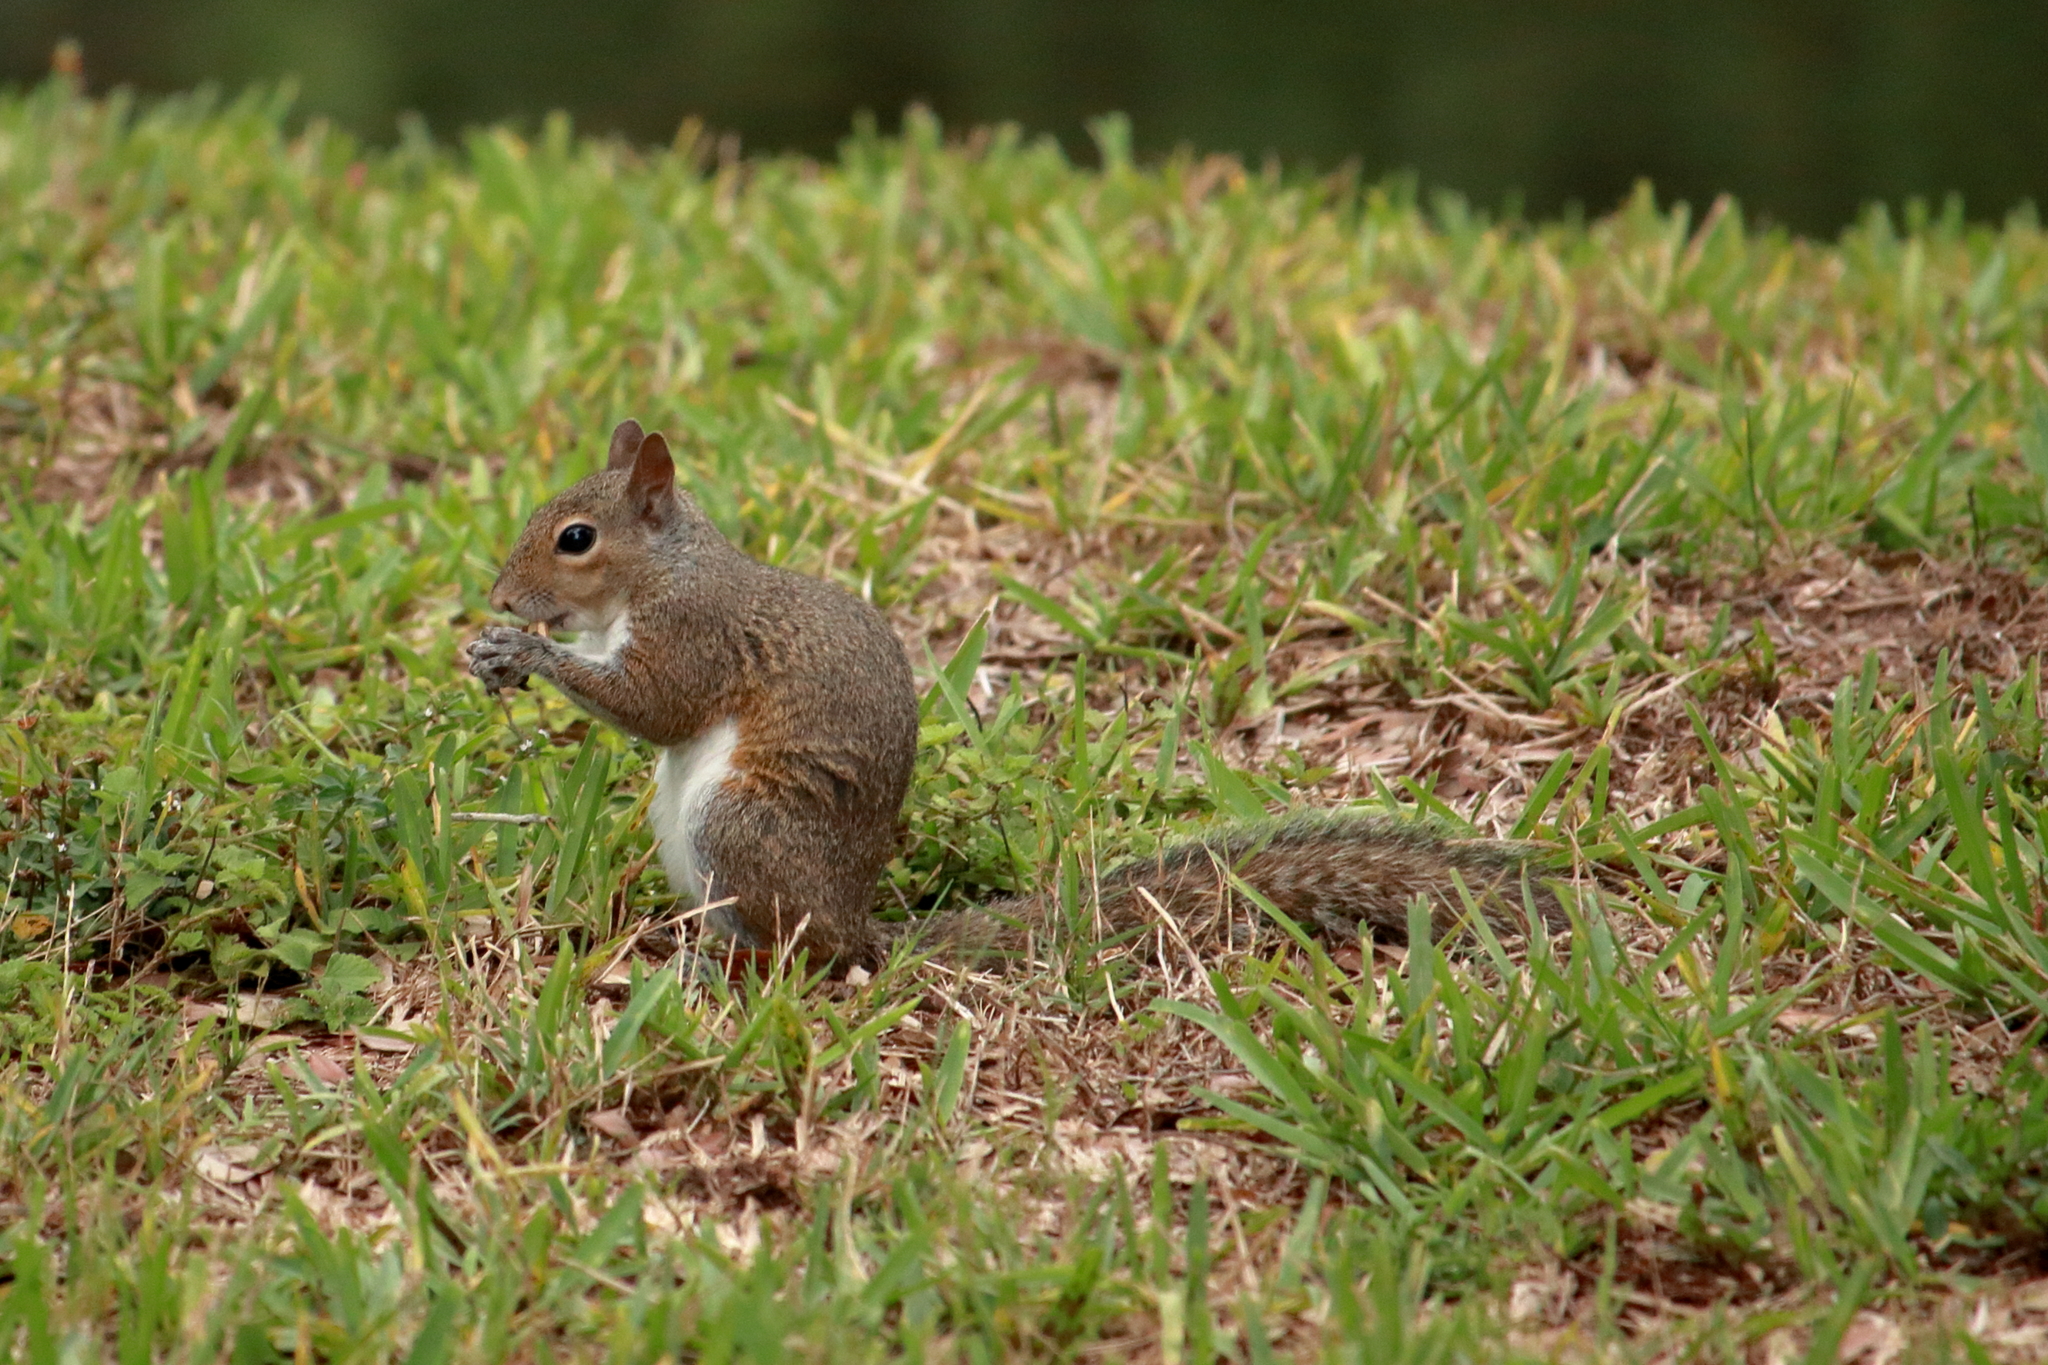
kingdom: Animalia
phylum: Chordata
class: Mammalia
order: Rodentia
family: Sciuridae
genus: Sciurus
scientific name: Sciurus carolinensis
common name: Eastern gray squirrel
